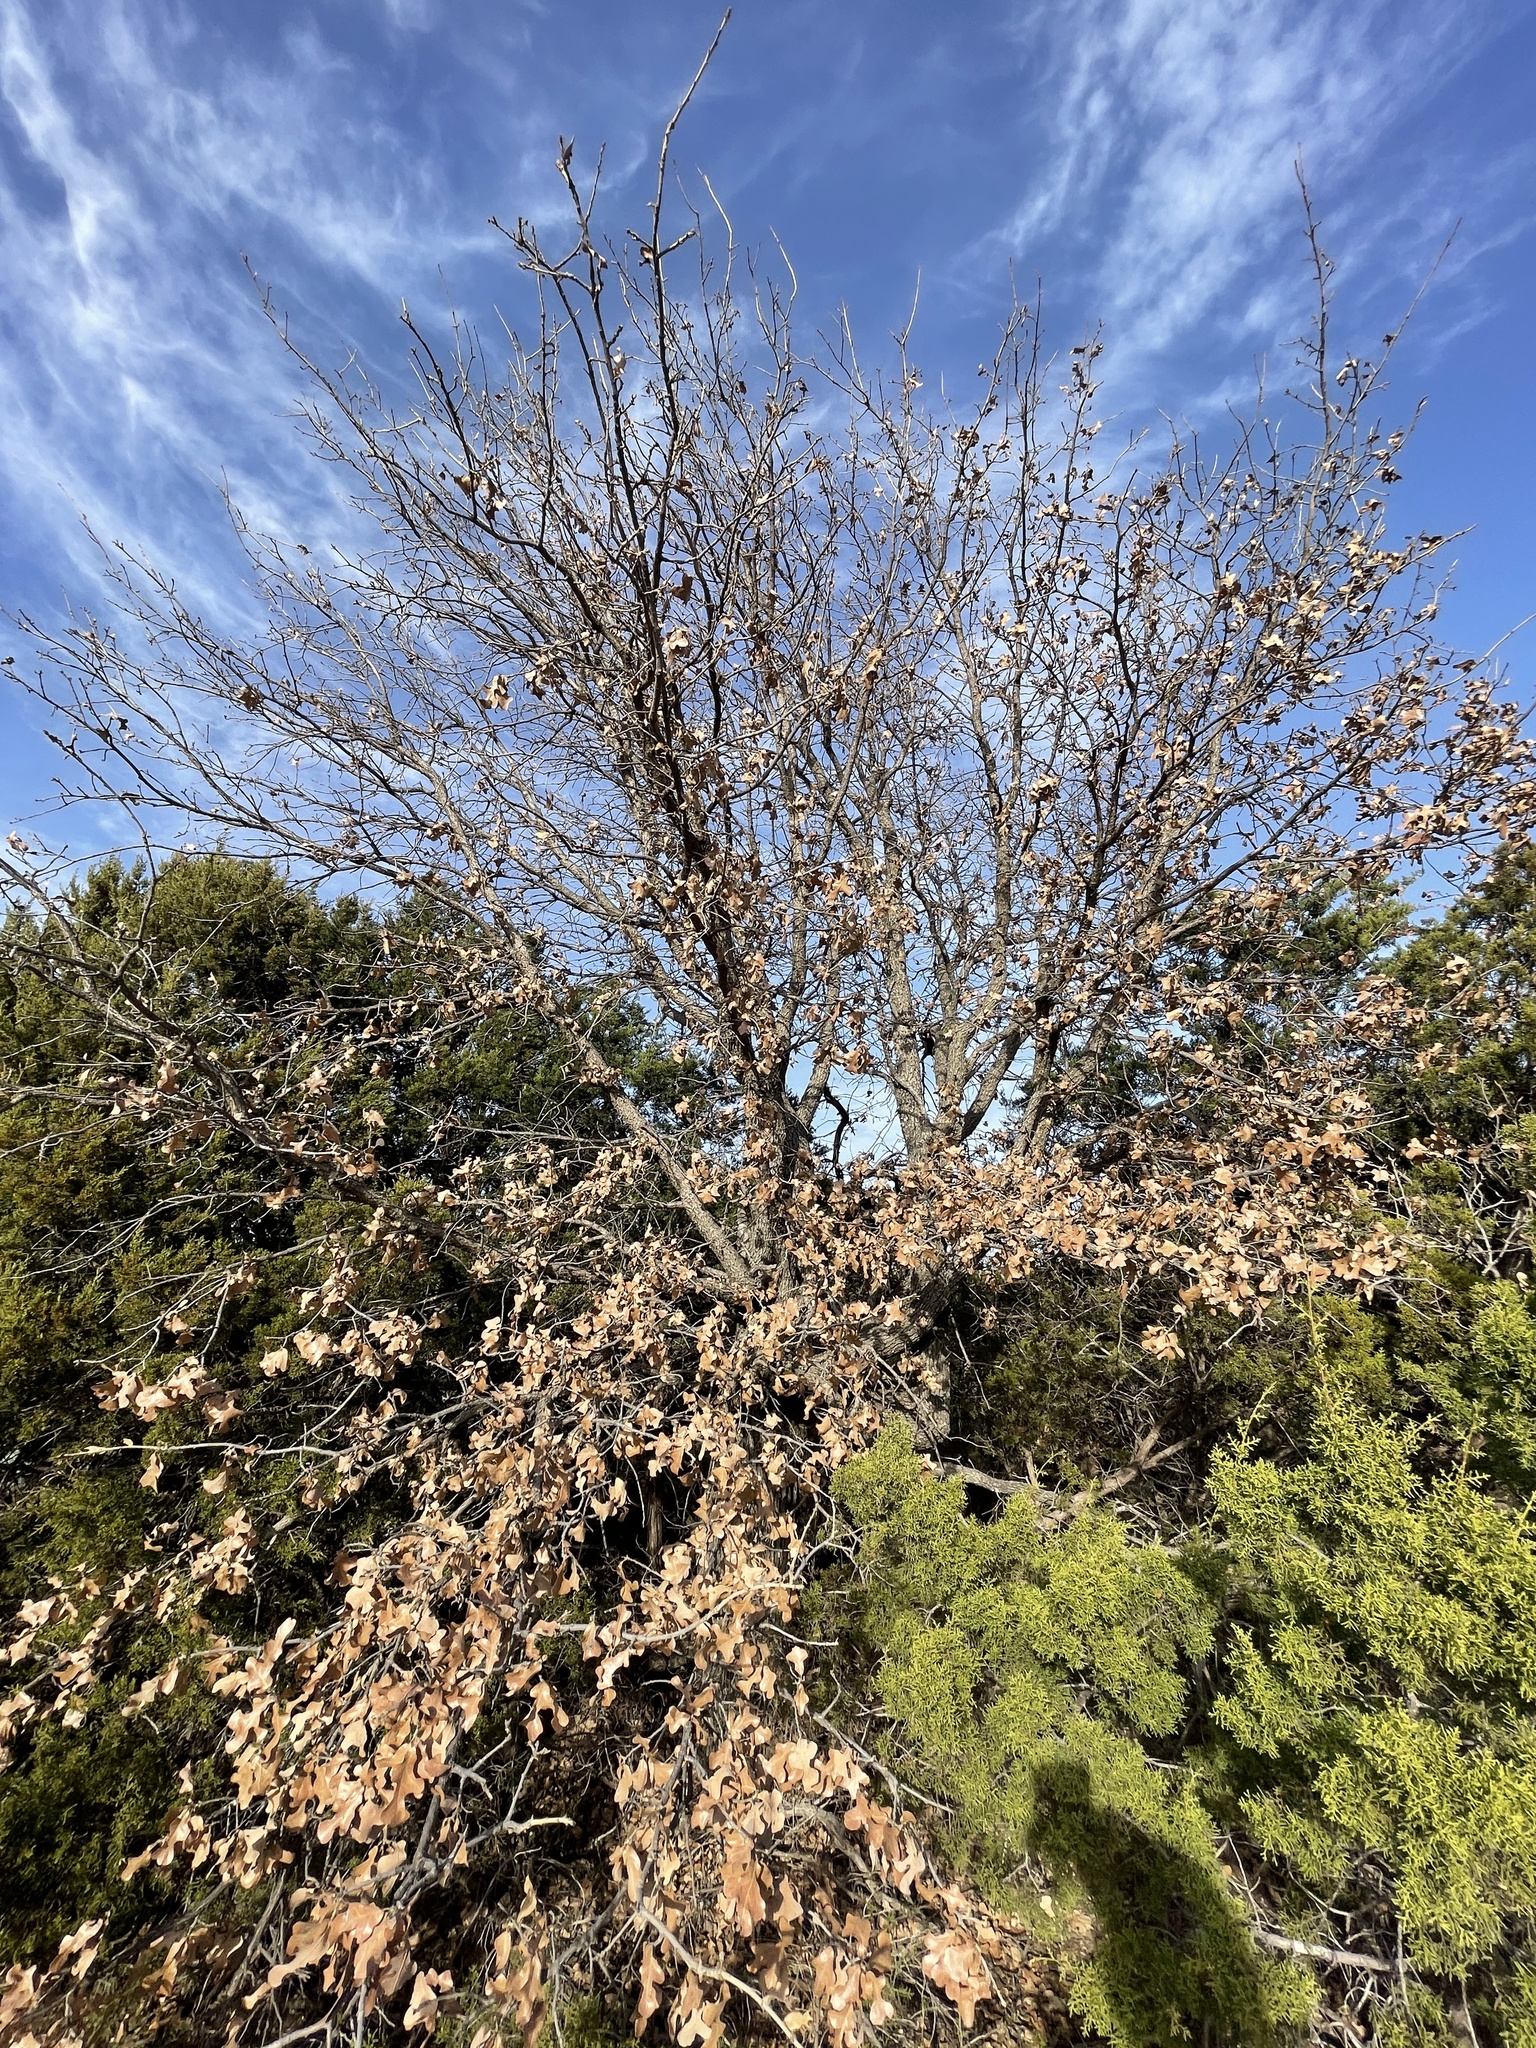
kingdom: Plantae
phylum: Tracheophyta
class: Magnoliopsida
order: Fagales
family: Fagaceae
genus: Quercus
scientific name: Quercus stellata
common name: Post oak
